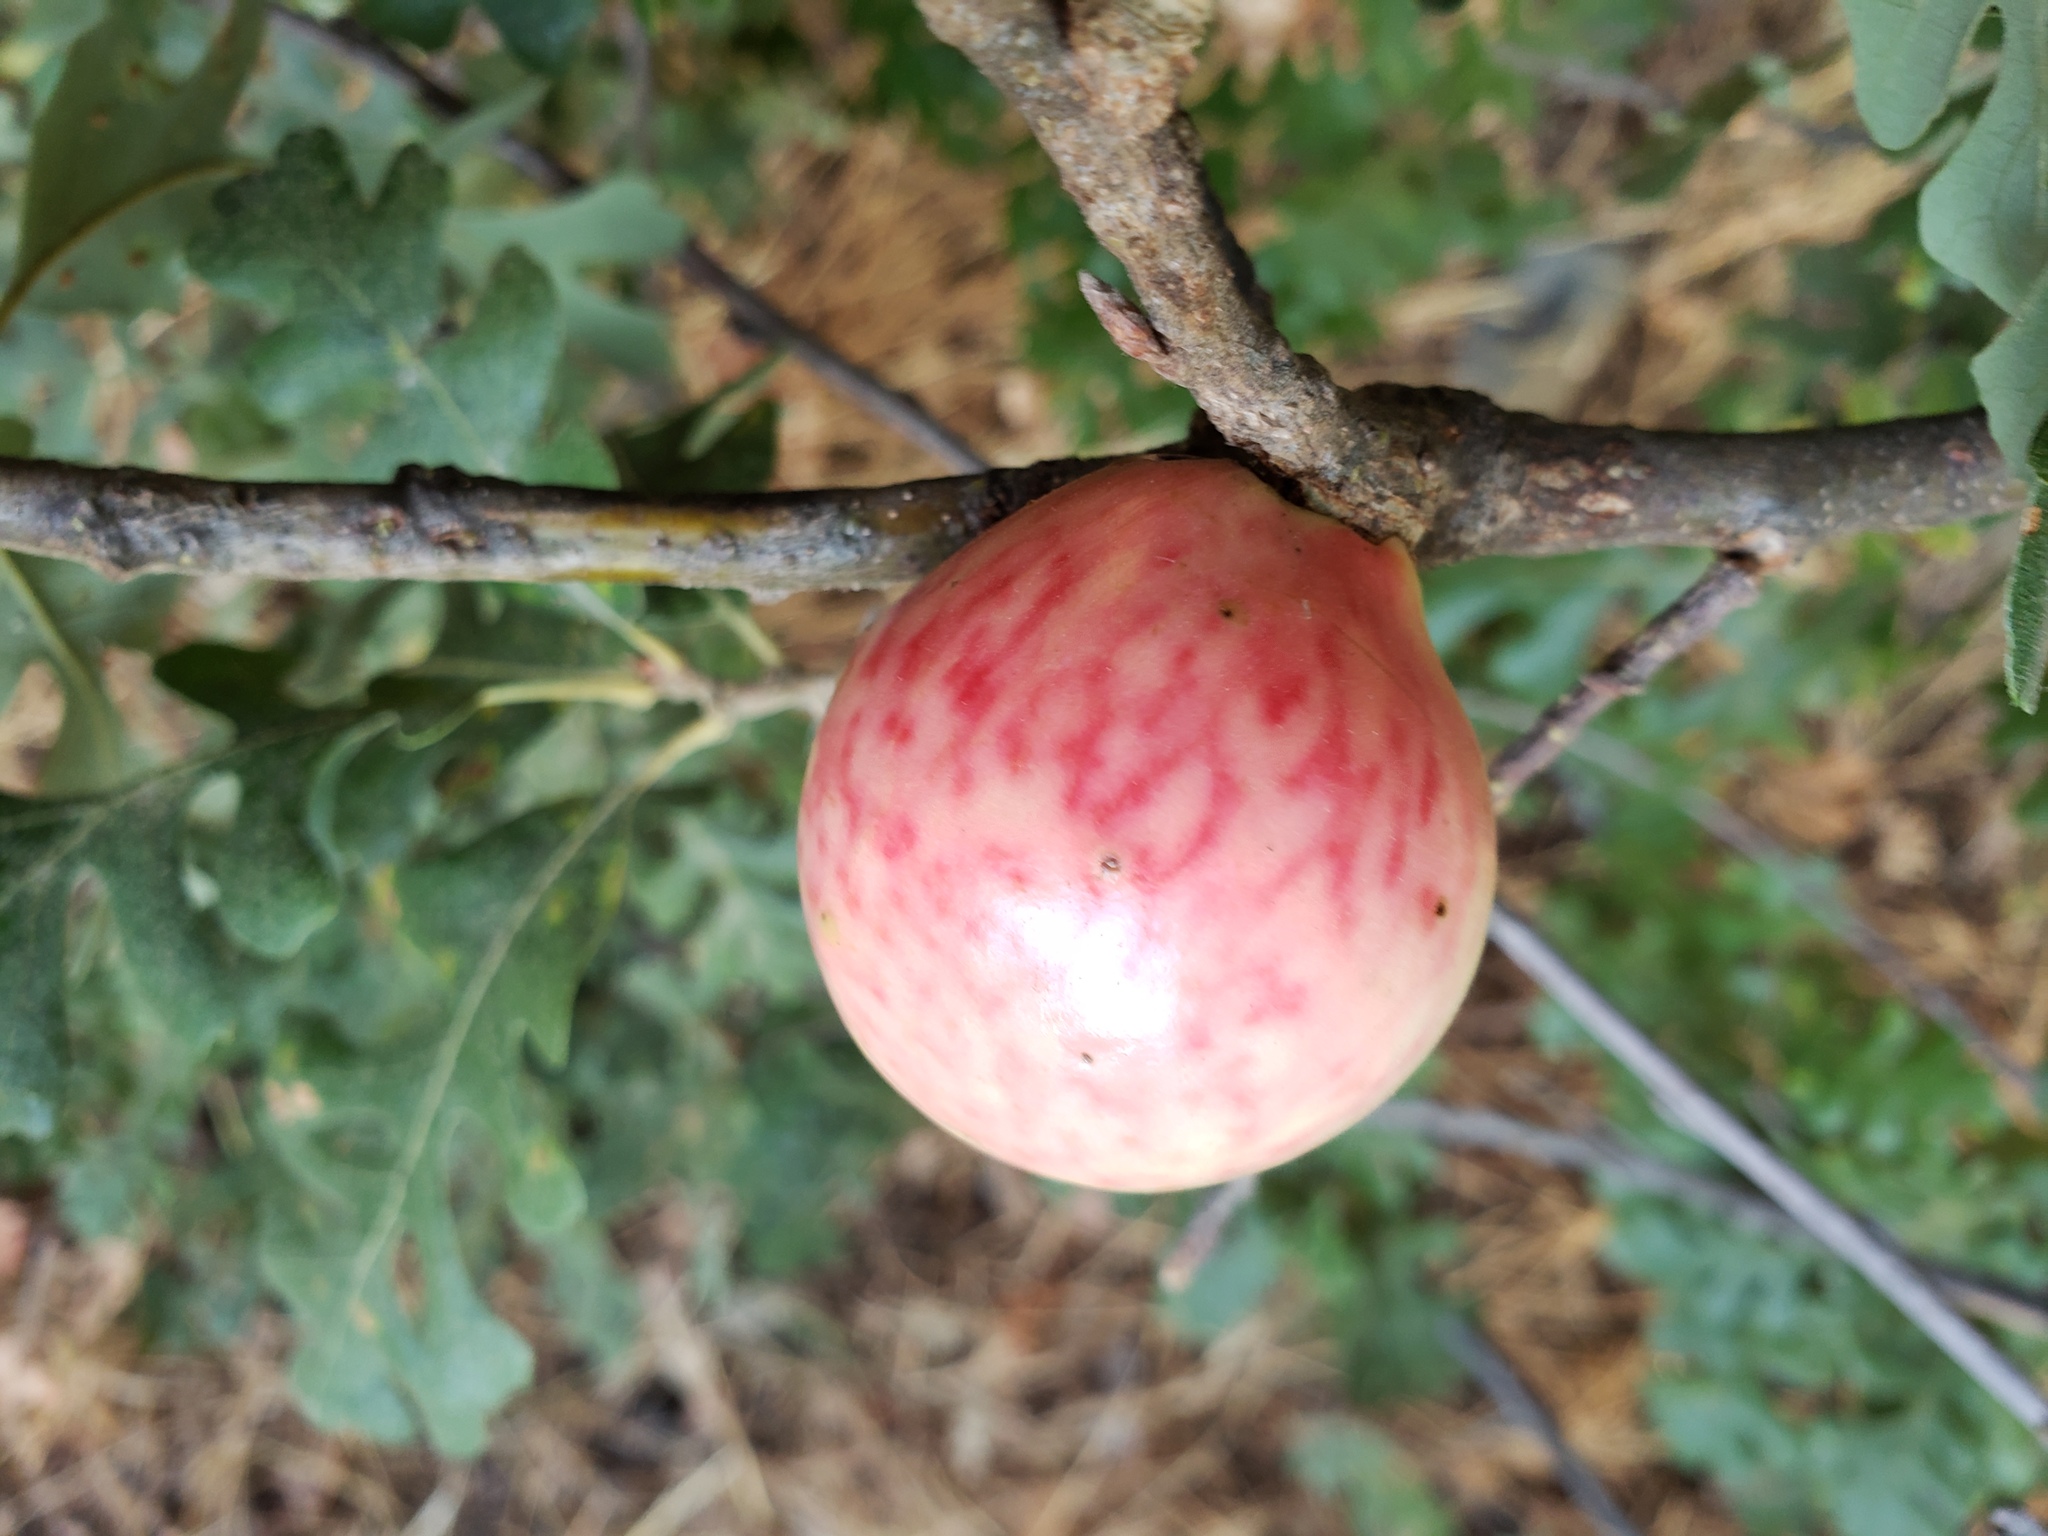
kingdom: Animalia
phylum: Arthropoda
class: Insecta
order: Hymenoptera
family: Cynipidae
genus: Andricus
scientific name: Andricus quercuscalifornicus
